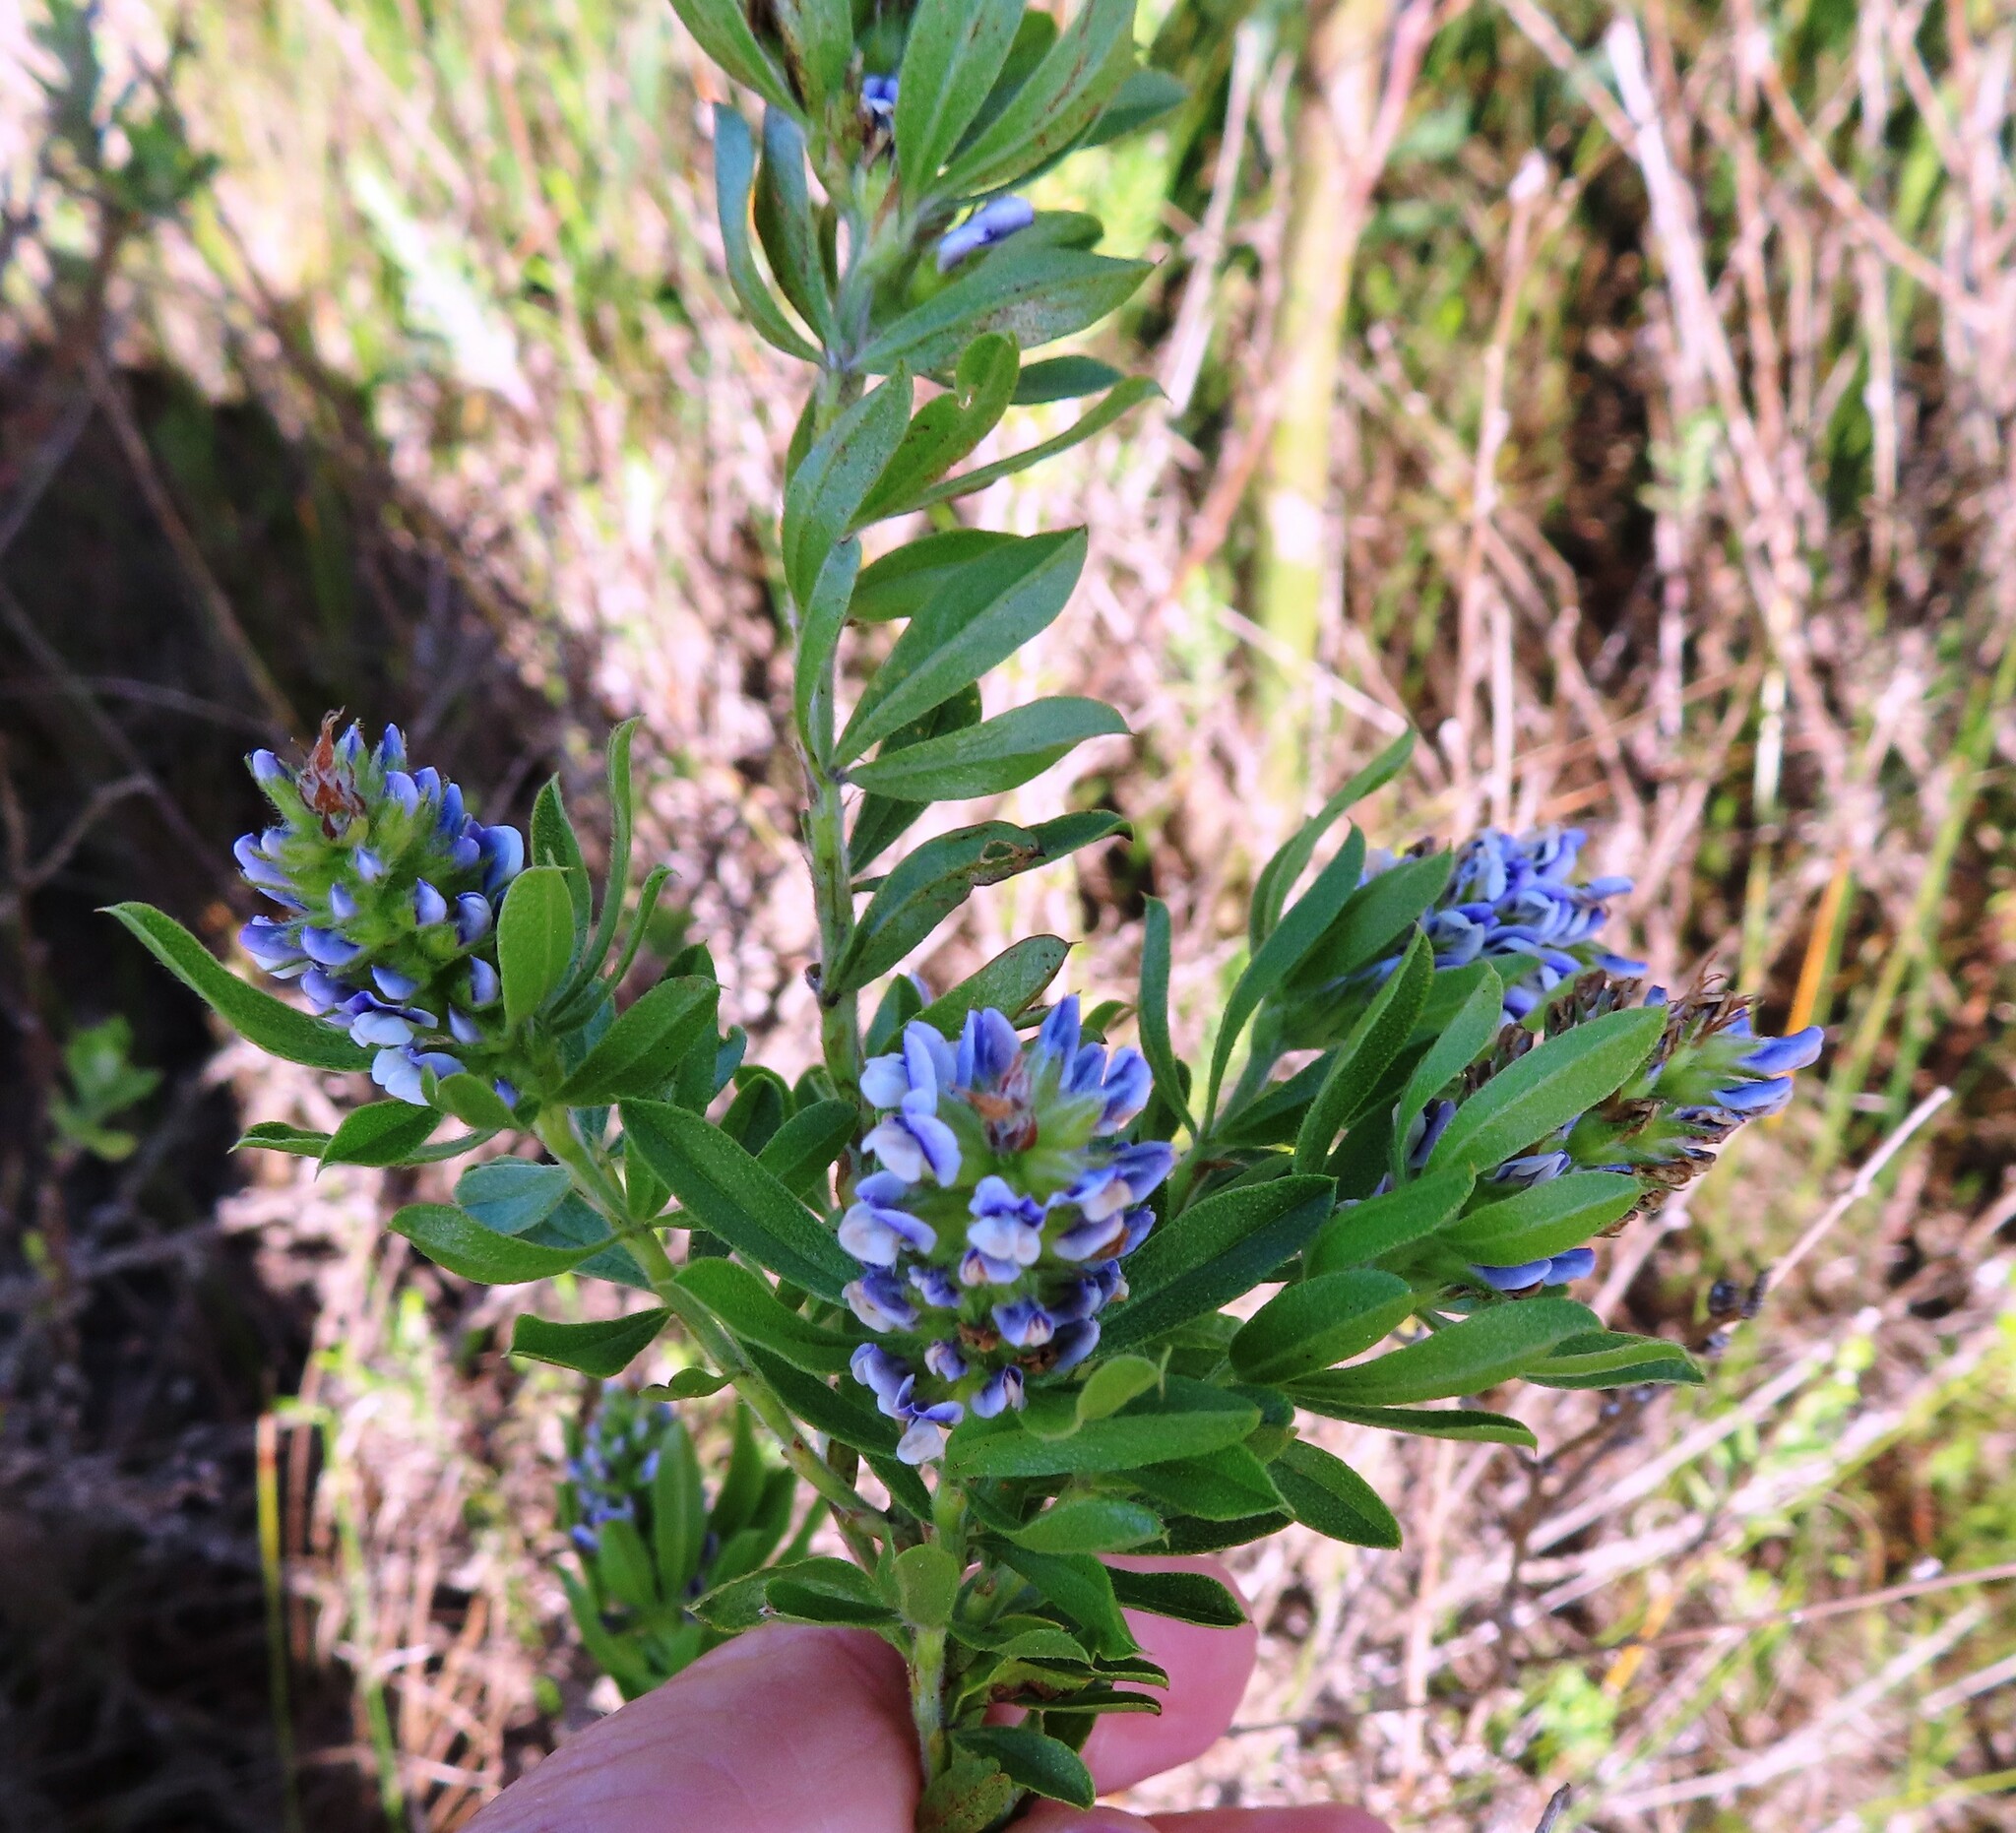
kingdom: Plantae
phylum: Tracheophyta
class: Magnoliopsida
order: Fabales
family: Fabaceae
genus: Psoralea
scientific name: Psoralea spicata
